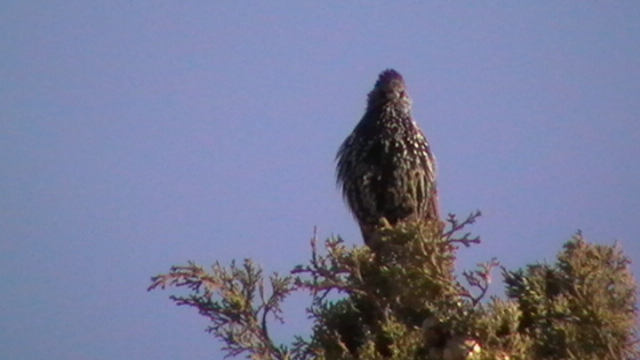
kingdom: Animalia
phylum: Chordata
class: Aves
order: Passeriformes
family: Sturnidae
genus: Sturnus
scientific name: Sturnus vulgaris
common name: Common starling
